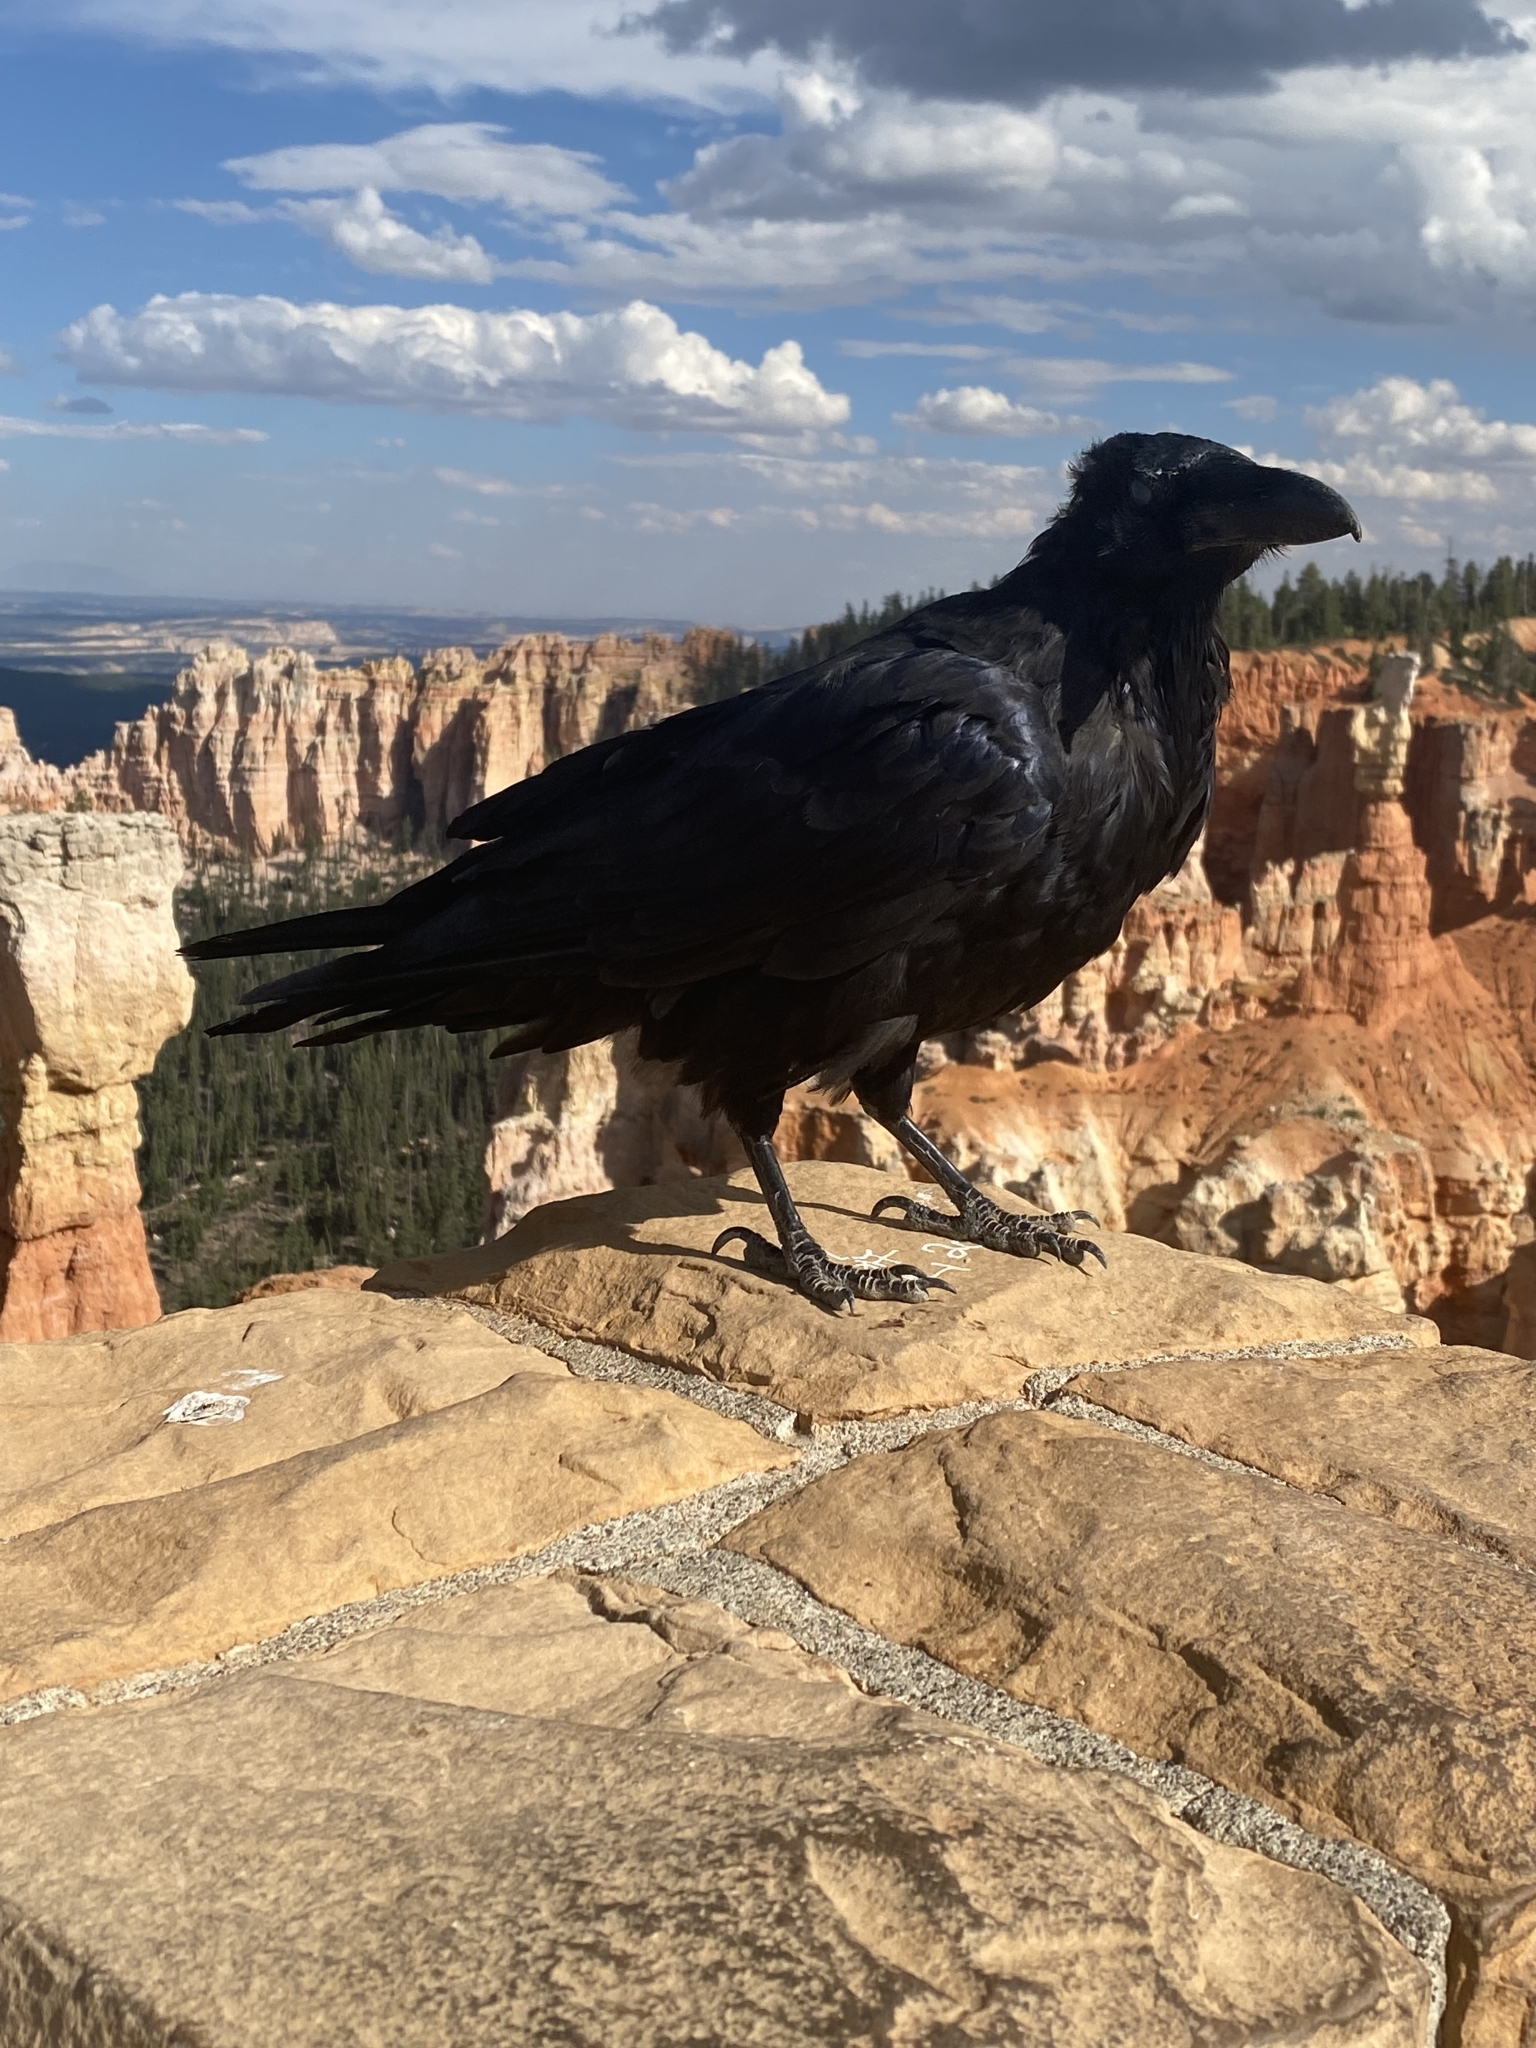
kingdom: Animalia
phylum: Chordata
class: Aves
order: Passeriformes
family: Corvidae
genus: Corvus
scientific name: Corvus corax
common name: Common raven
